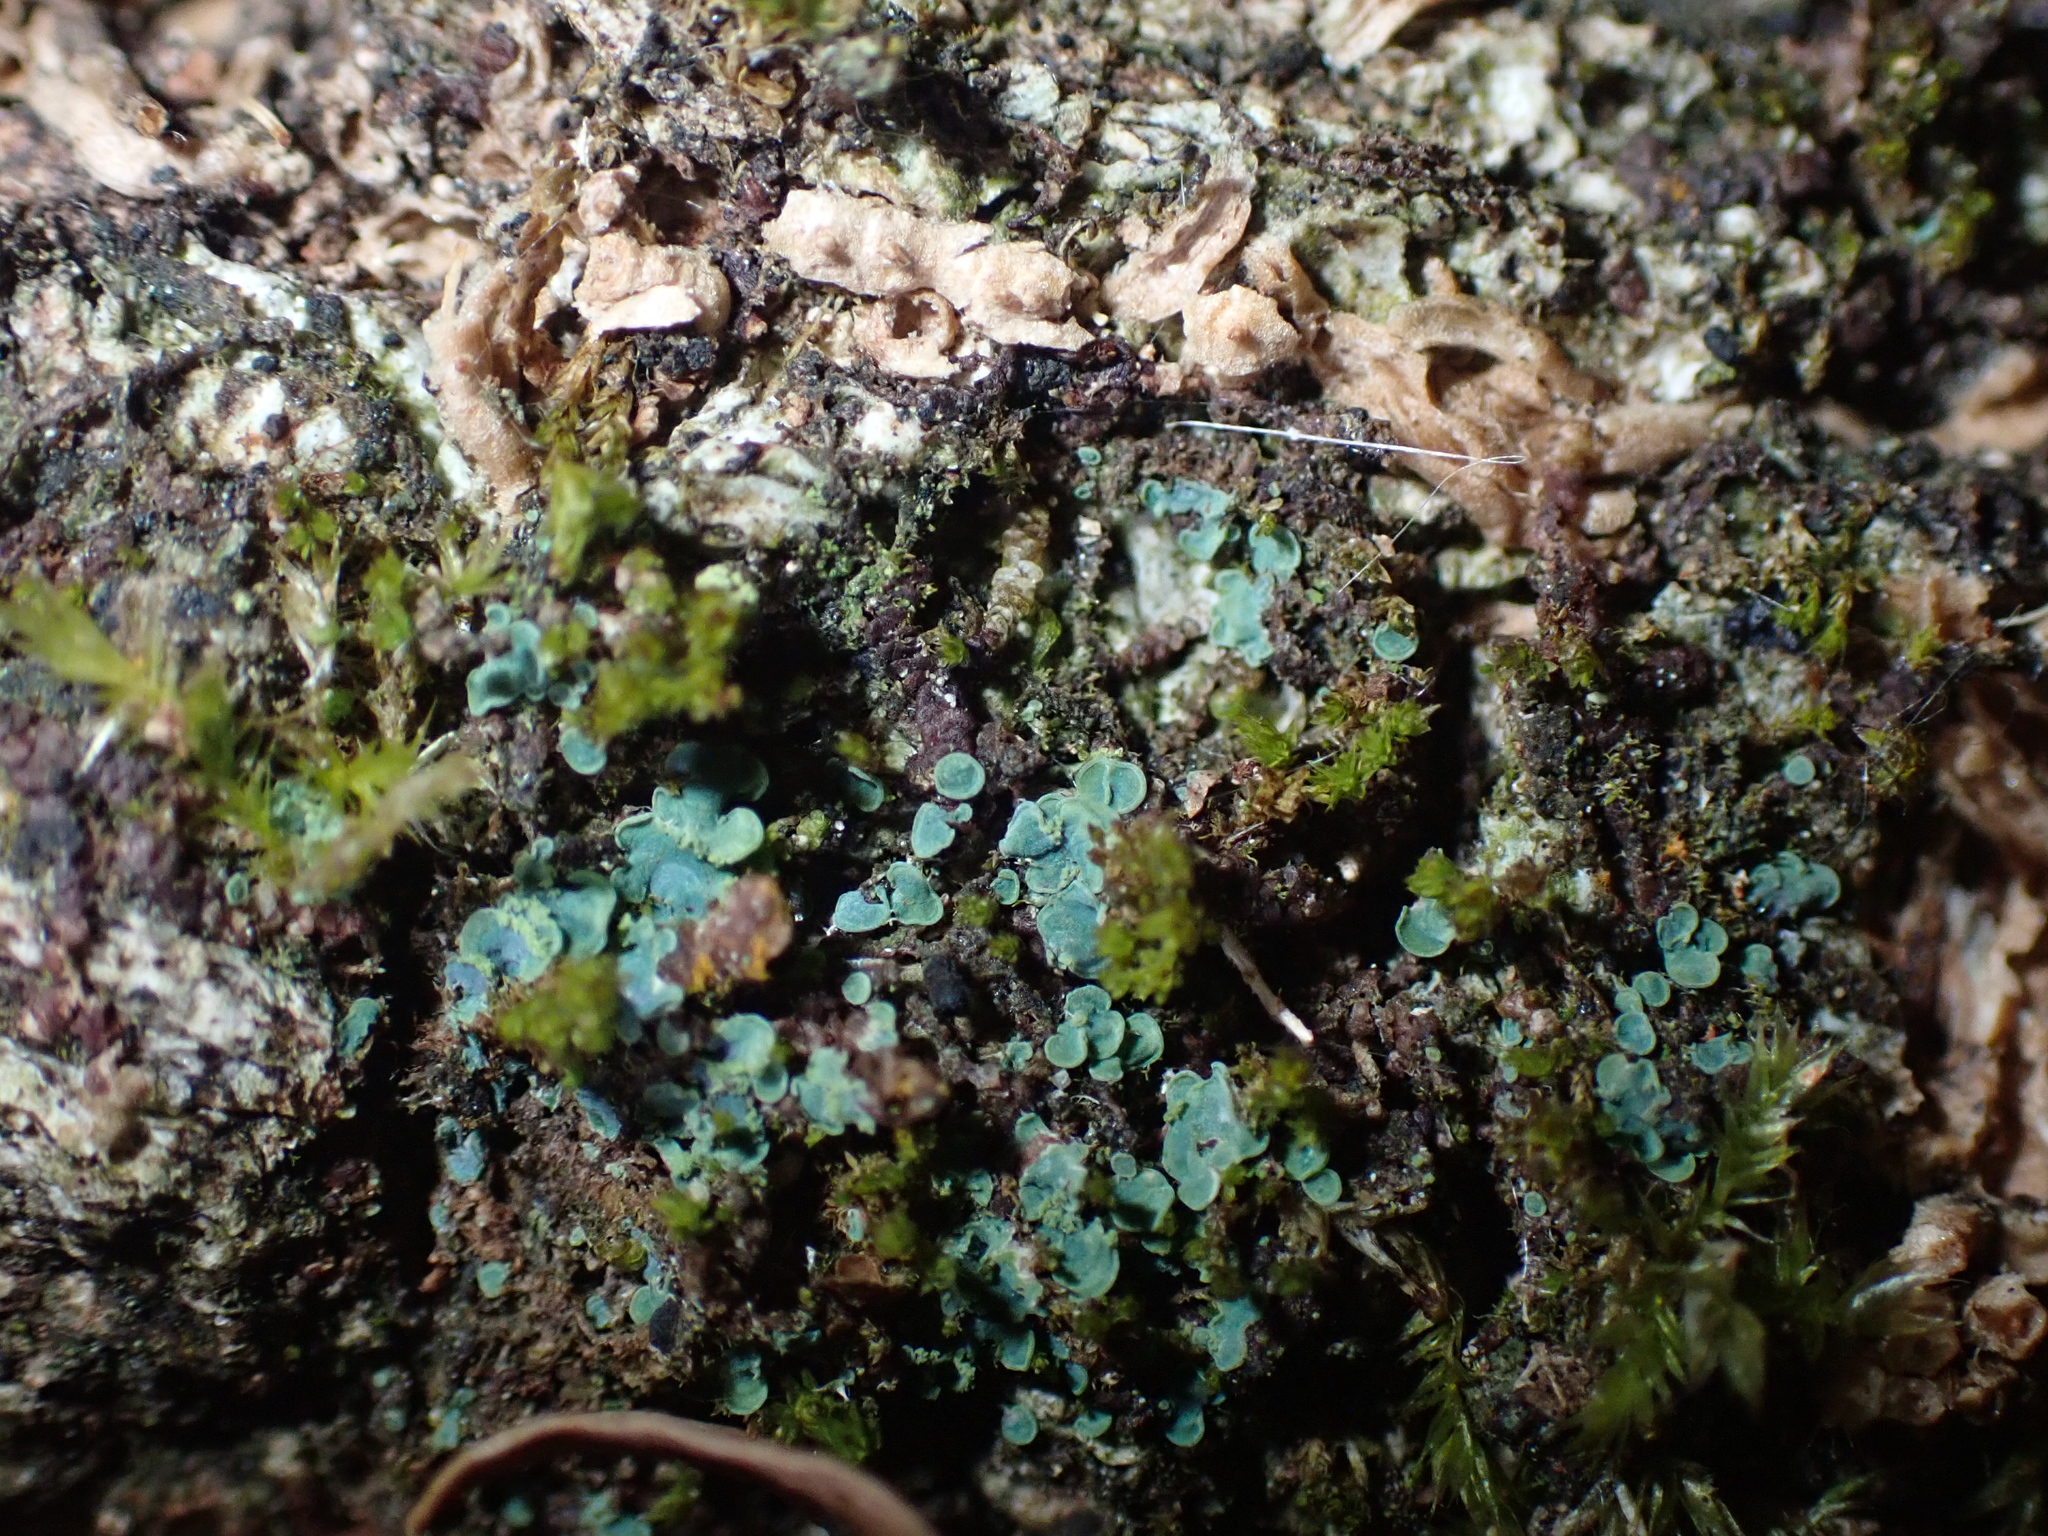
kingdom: Fungi
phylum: Ascomycota
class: Eurotiomycetes
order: Verrucariales
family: Verrucariaceae
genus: Normandina
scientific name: Normandina pulchella
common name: Elf ears lichen
